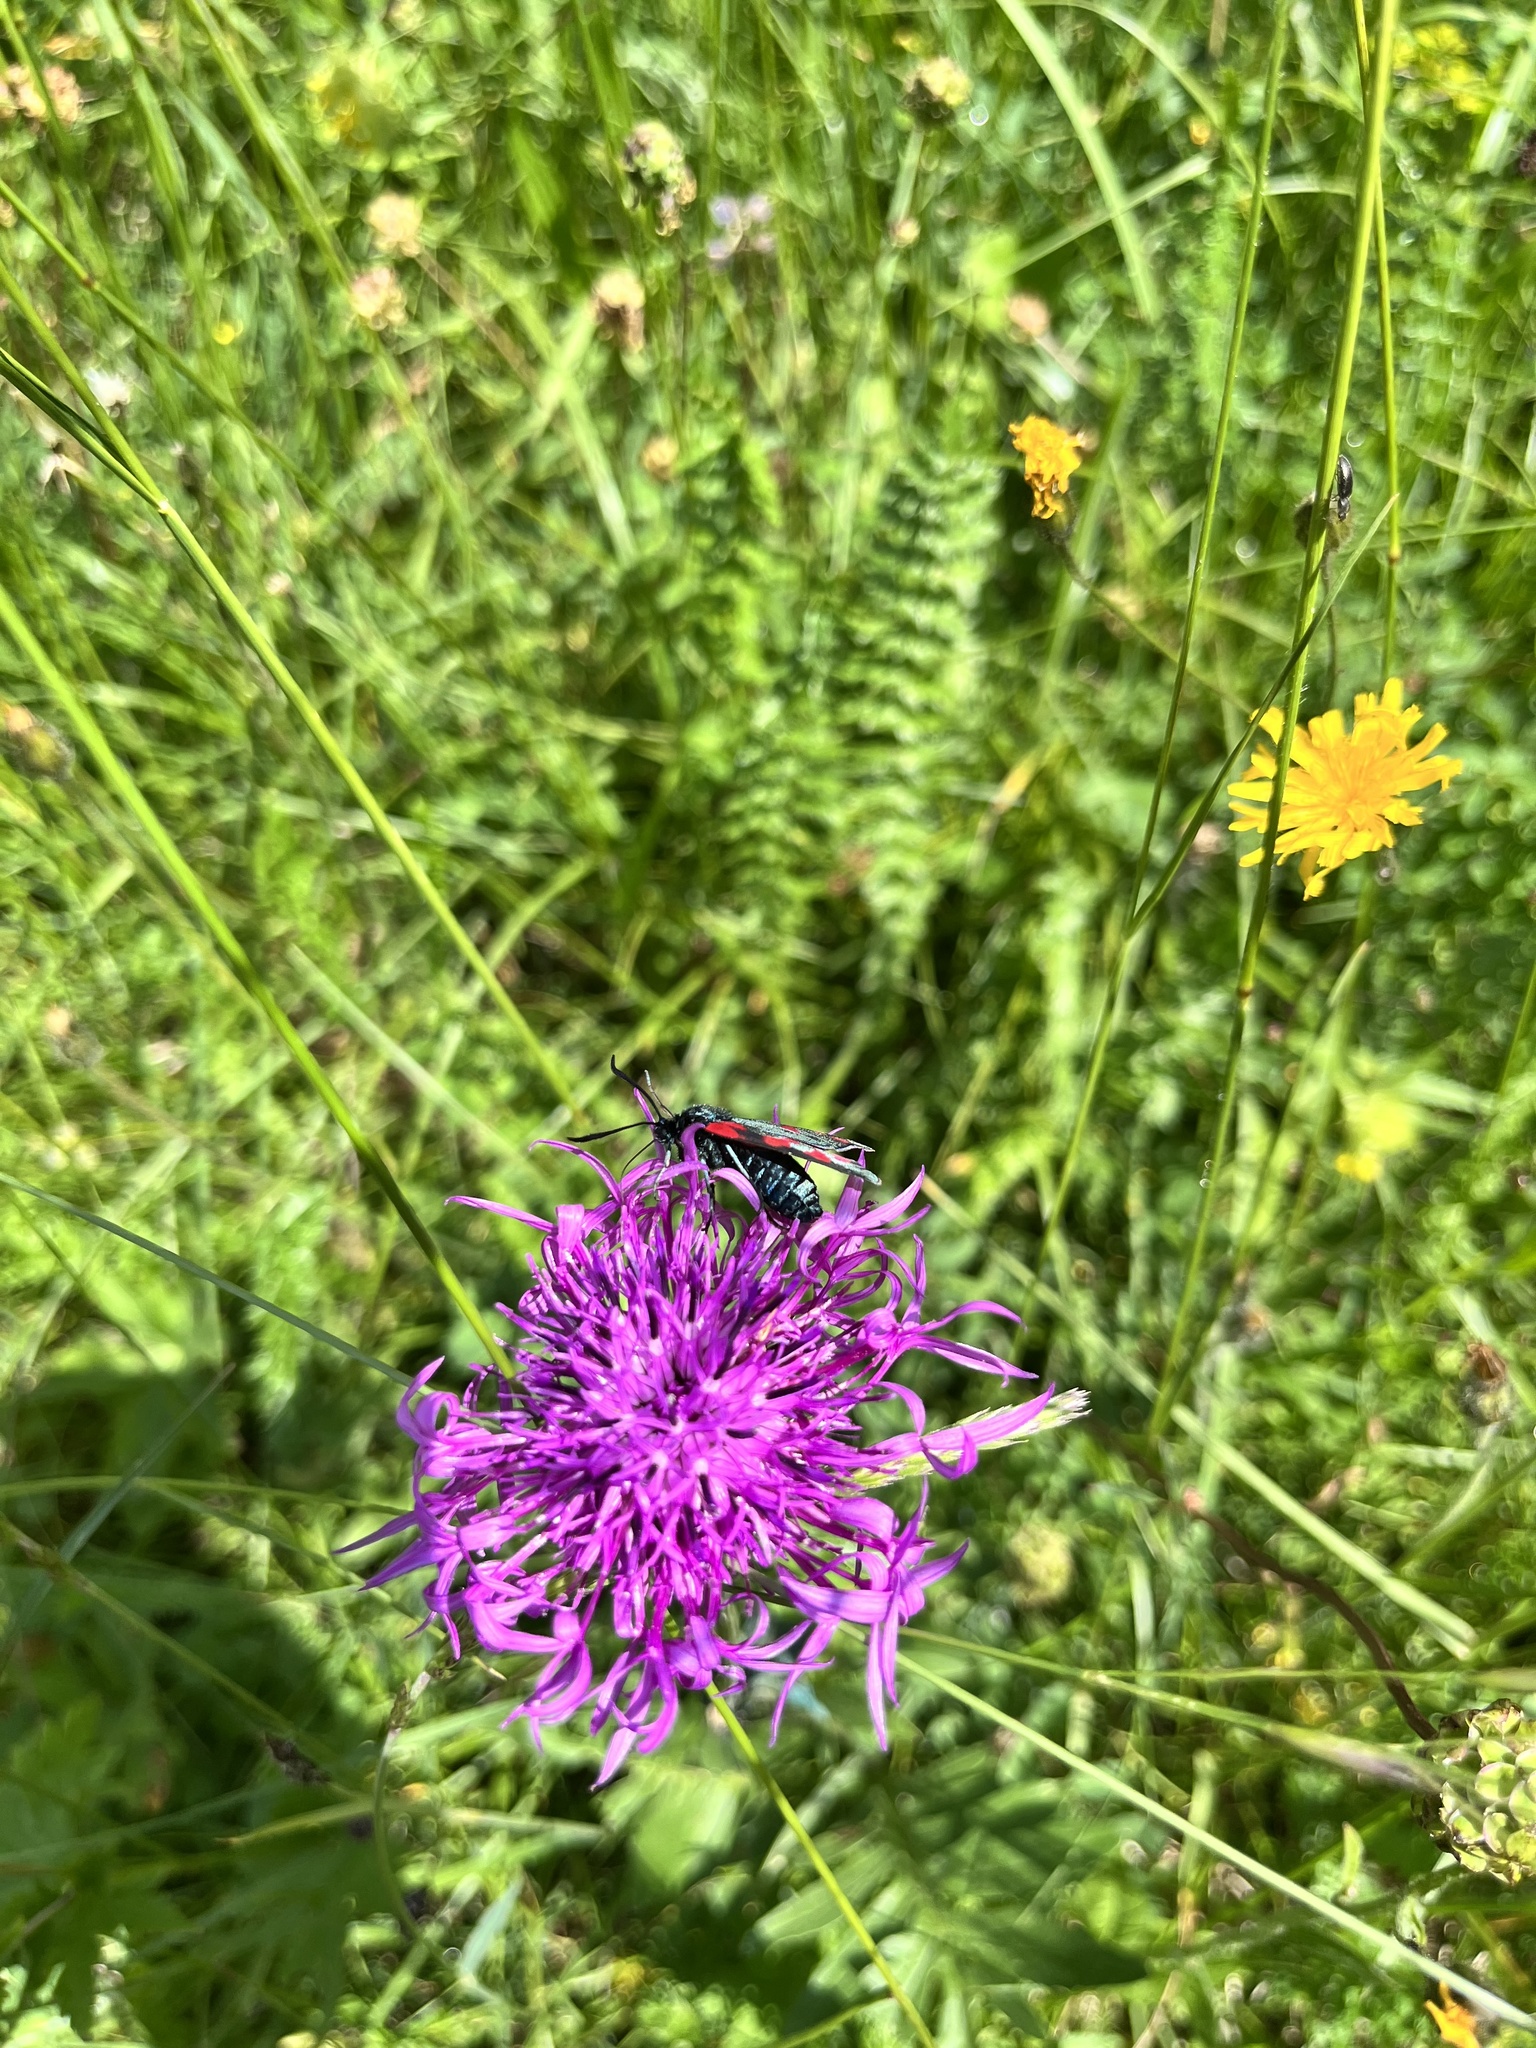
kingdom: Animalia
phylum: Arthropoda
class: Insecta
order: Lepidoptera
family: Zygaenidae
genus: Zygaena
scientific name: Zygaena filipendulae
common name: Six-spot burnet
